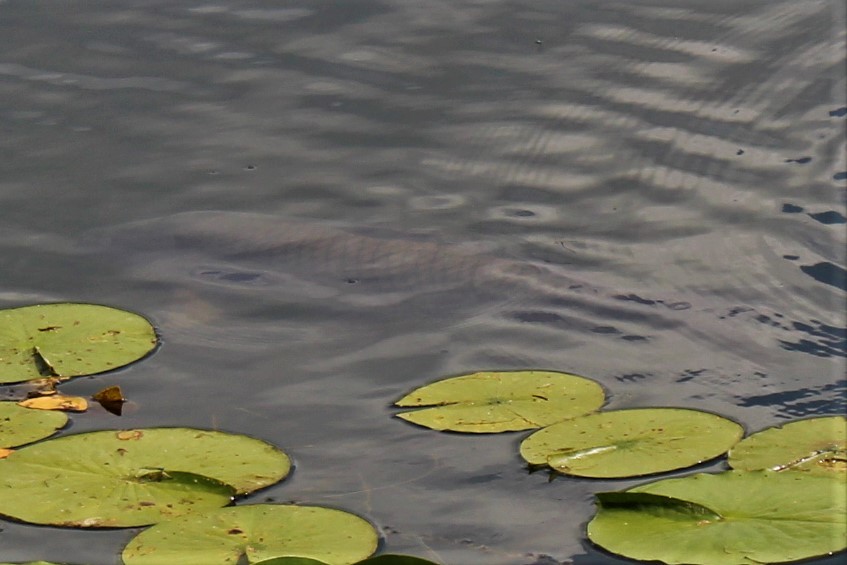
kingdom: Animalia
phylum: Chordata
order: Cypriniformes
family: Cyprinidae
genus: Cyprinus
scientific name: Cyprinus carpio
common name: Common carp
